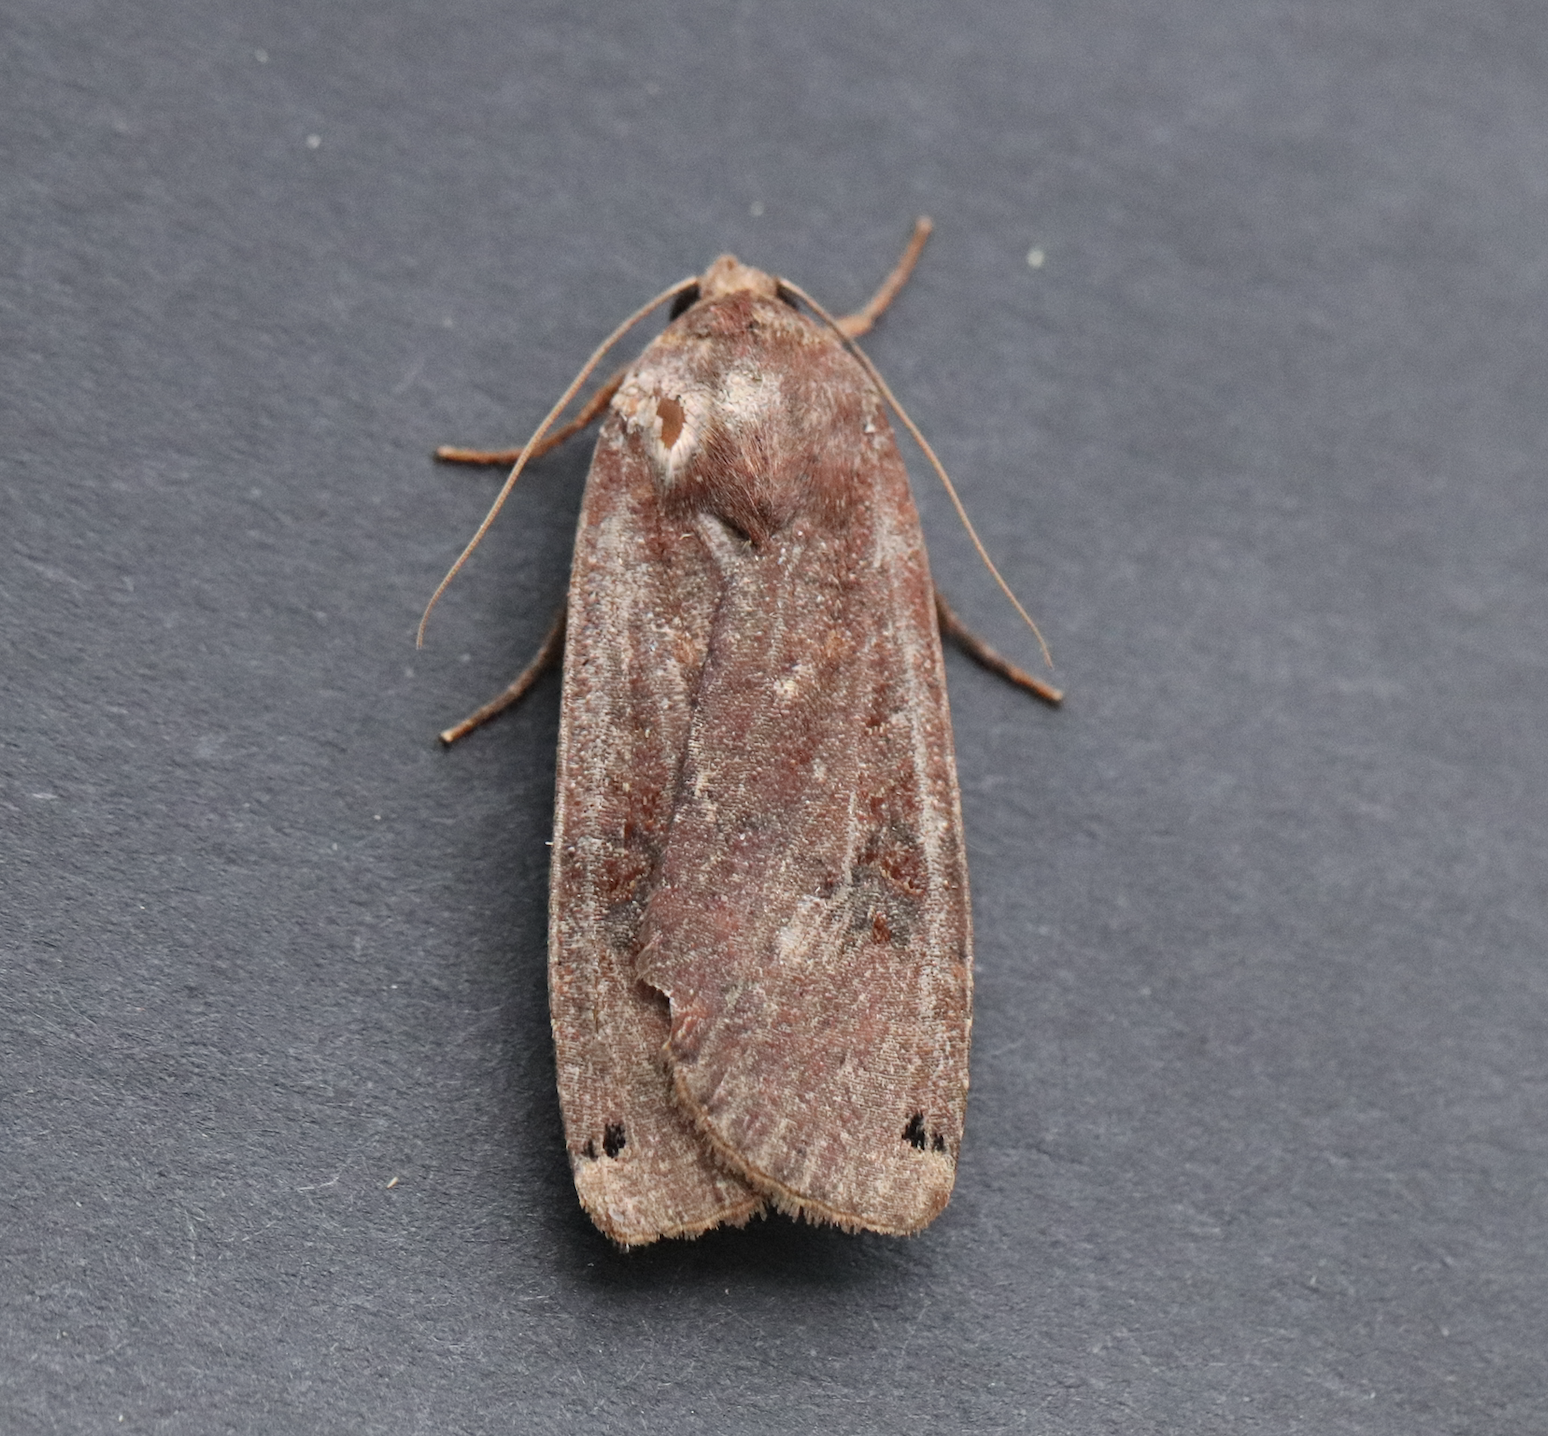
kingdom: Animalia
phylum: Arthropoda
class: Insecta
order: Lepidoptera
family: Noctuidae
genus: Noctua
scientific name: Noctua pronuba
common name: Large yellow underwing
